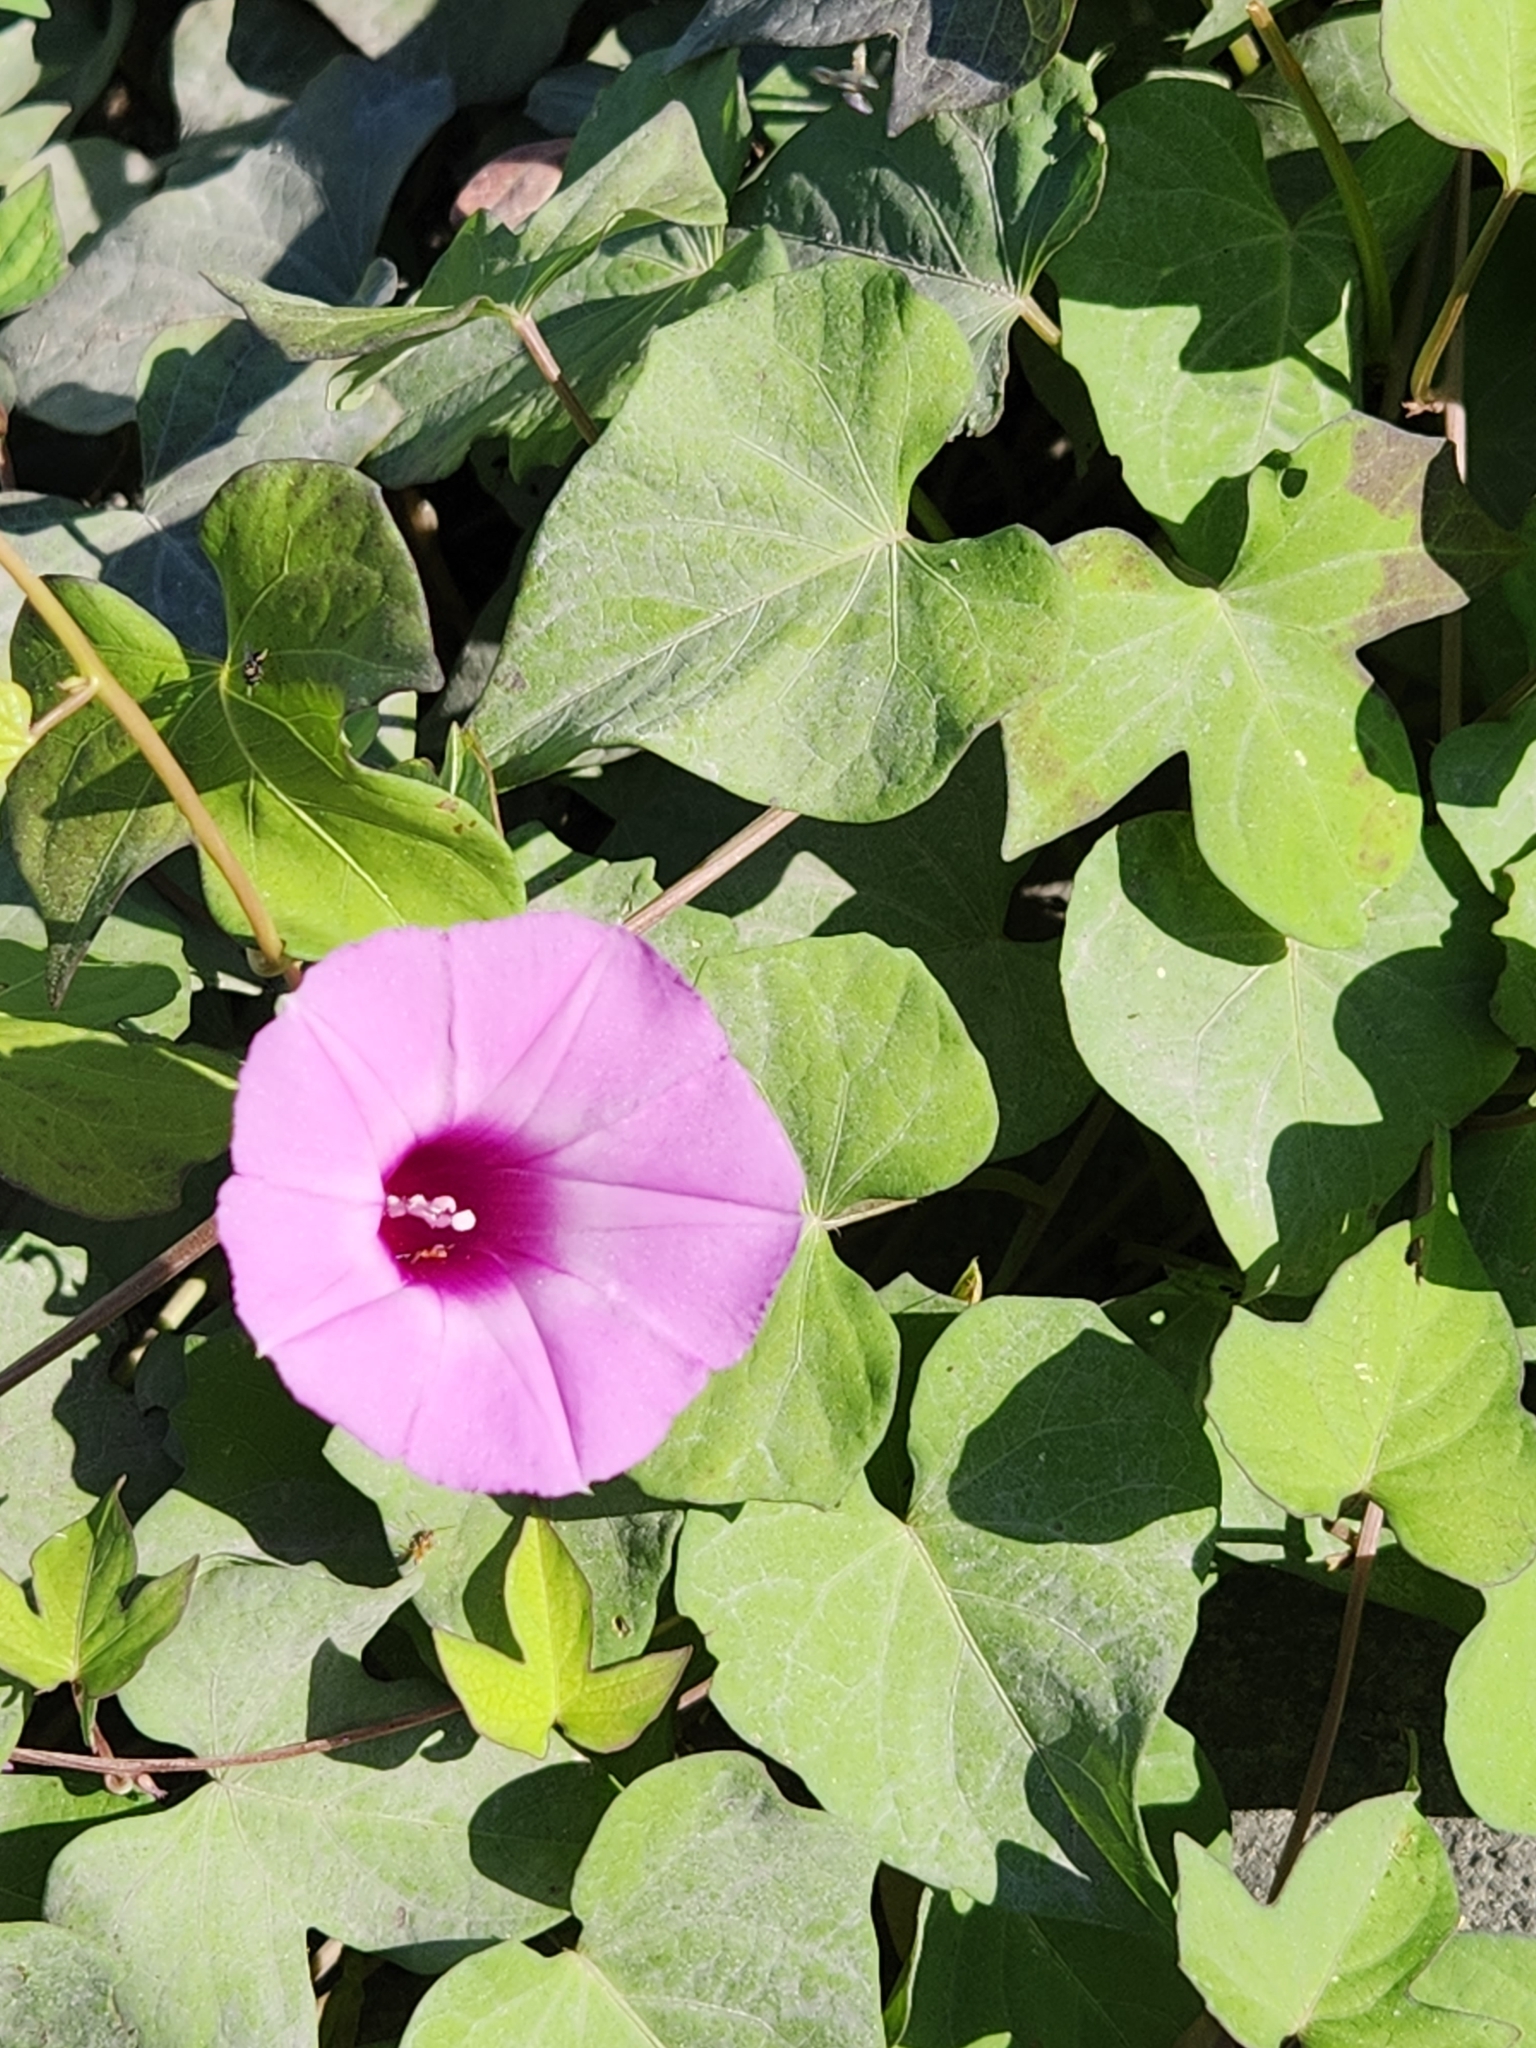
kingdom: Plantae
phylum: Tracheophyta
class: Magnoliopsida
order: Solanales
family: Convolvulaceae
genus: Ipomoea
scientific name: Ipomoea cordatotriloba
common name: Cotton morning glory
